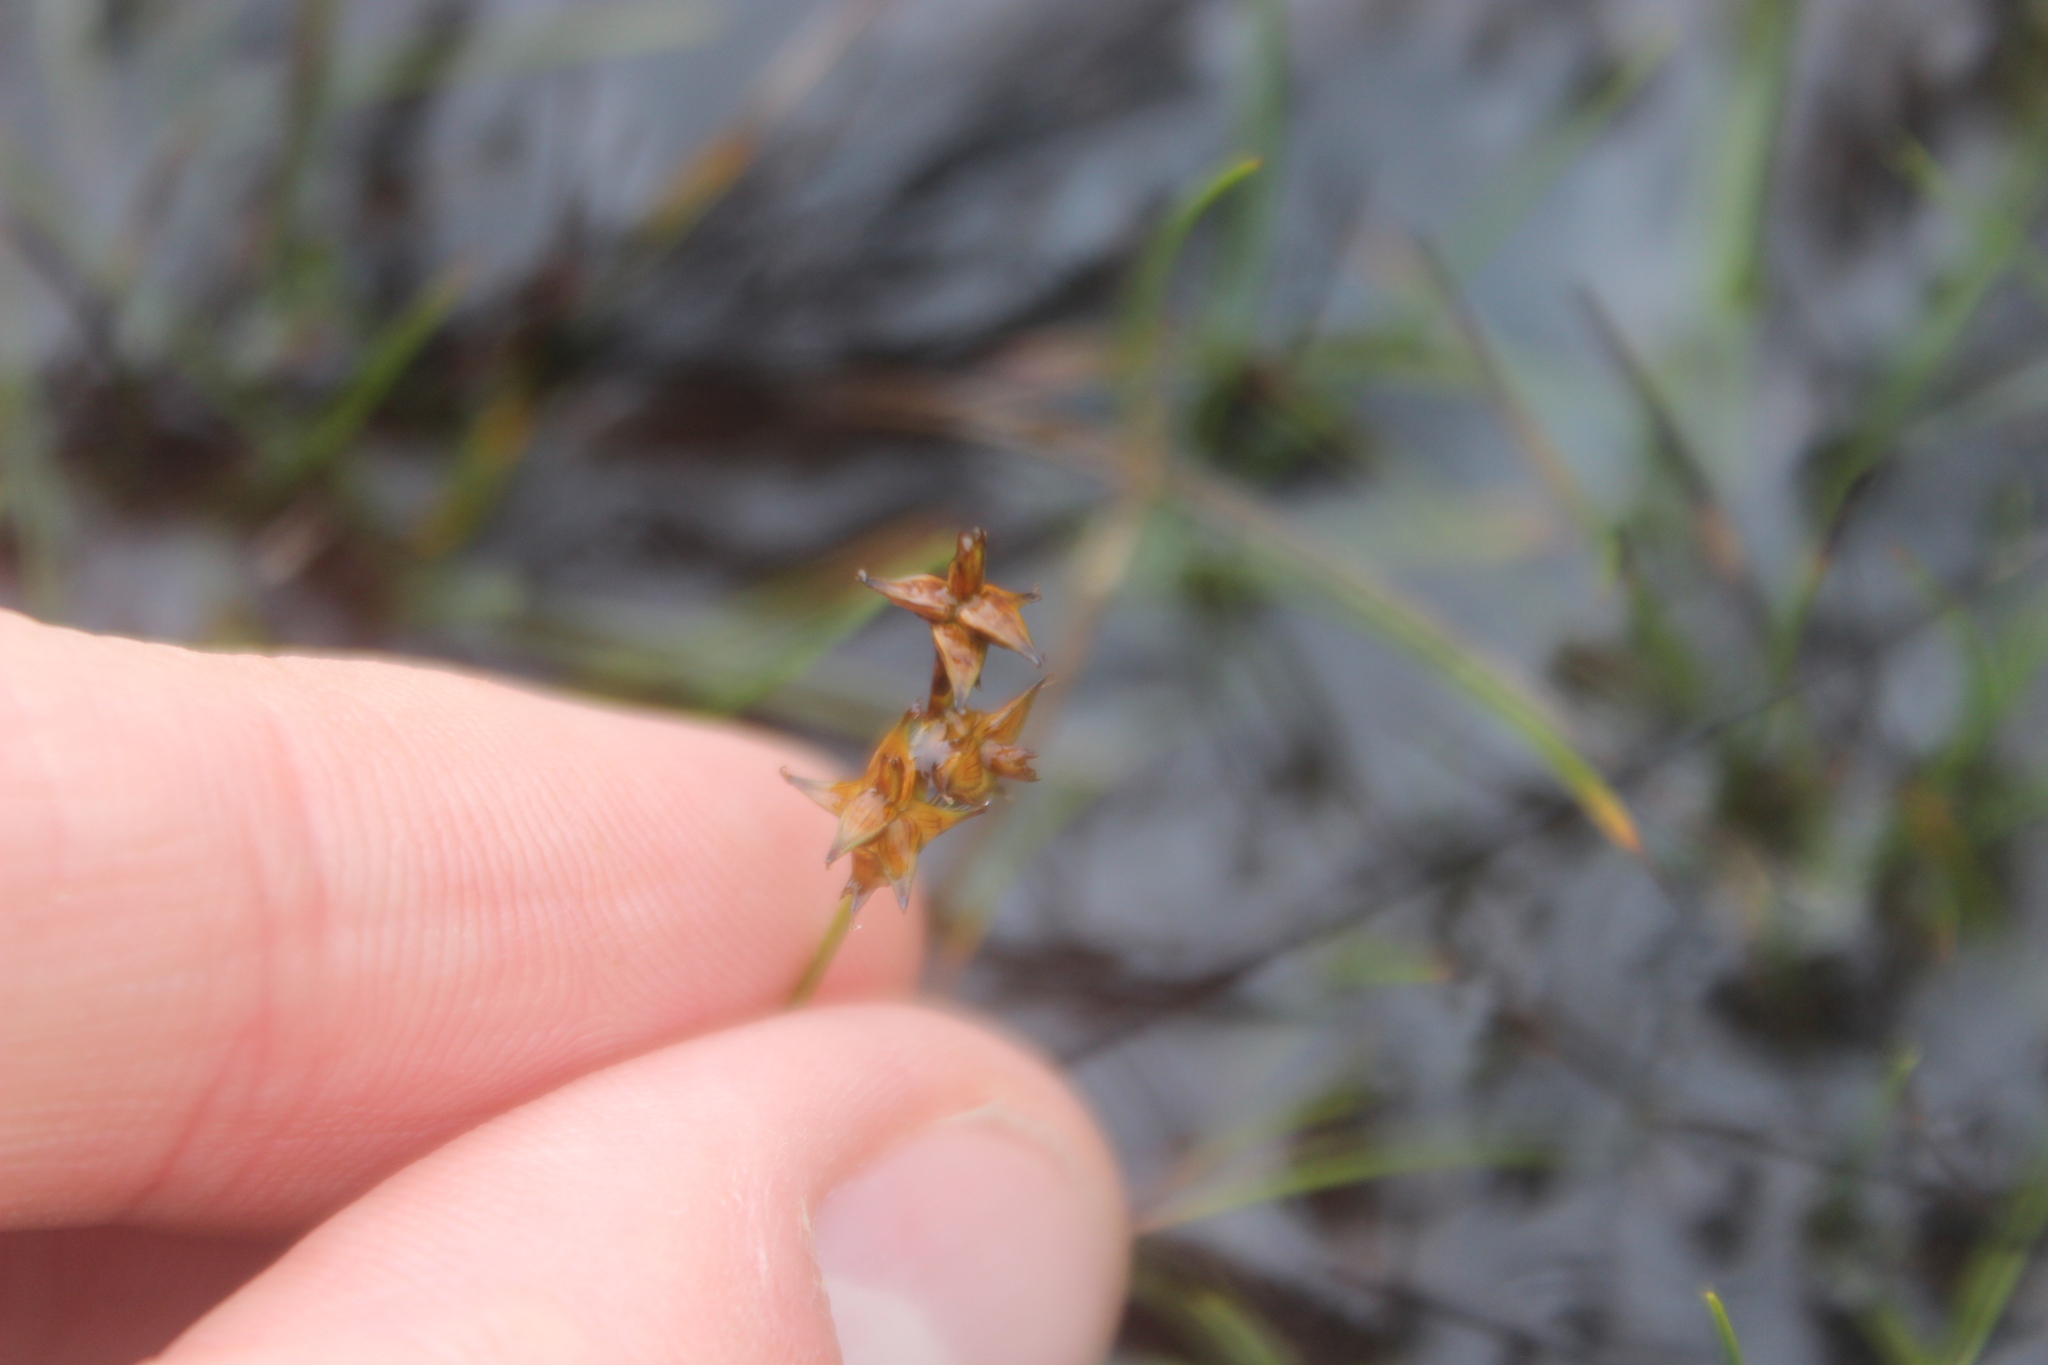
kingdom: Plantae
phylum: Tracheophyta
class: Liliopsida
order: Poales
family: Cyperaceae
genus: Carex
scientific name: Carex echinata
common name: Star sedge
